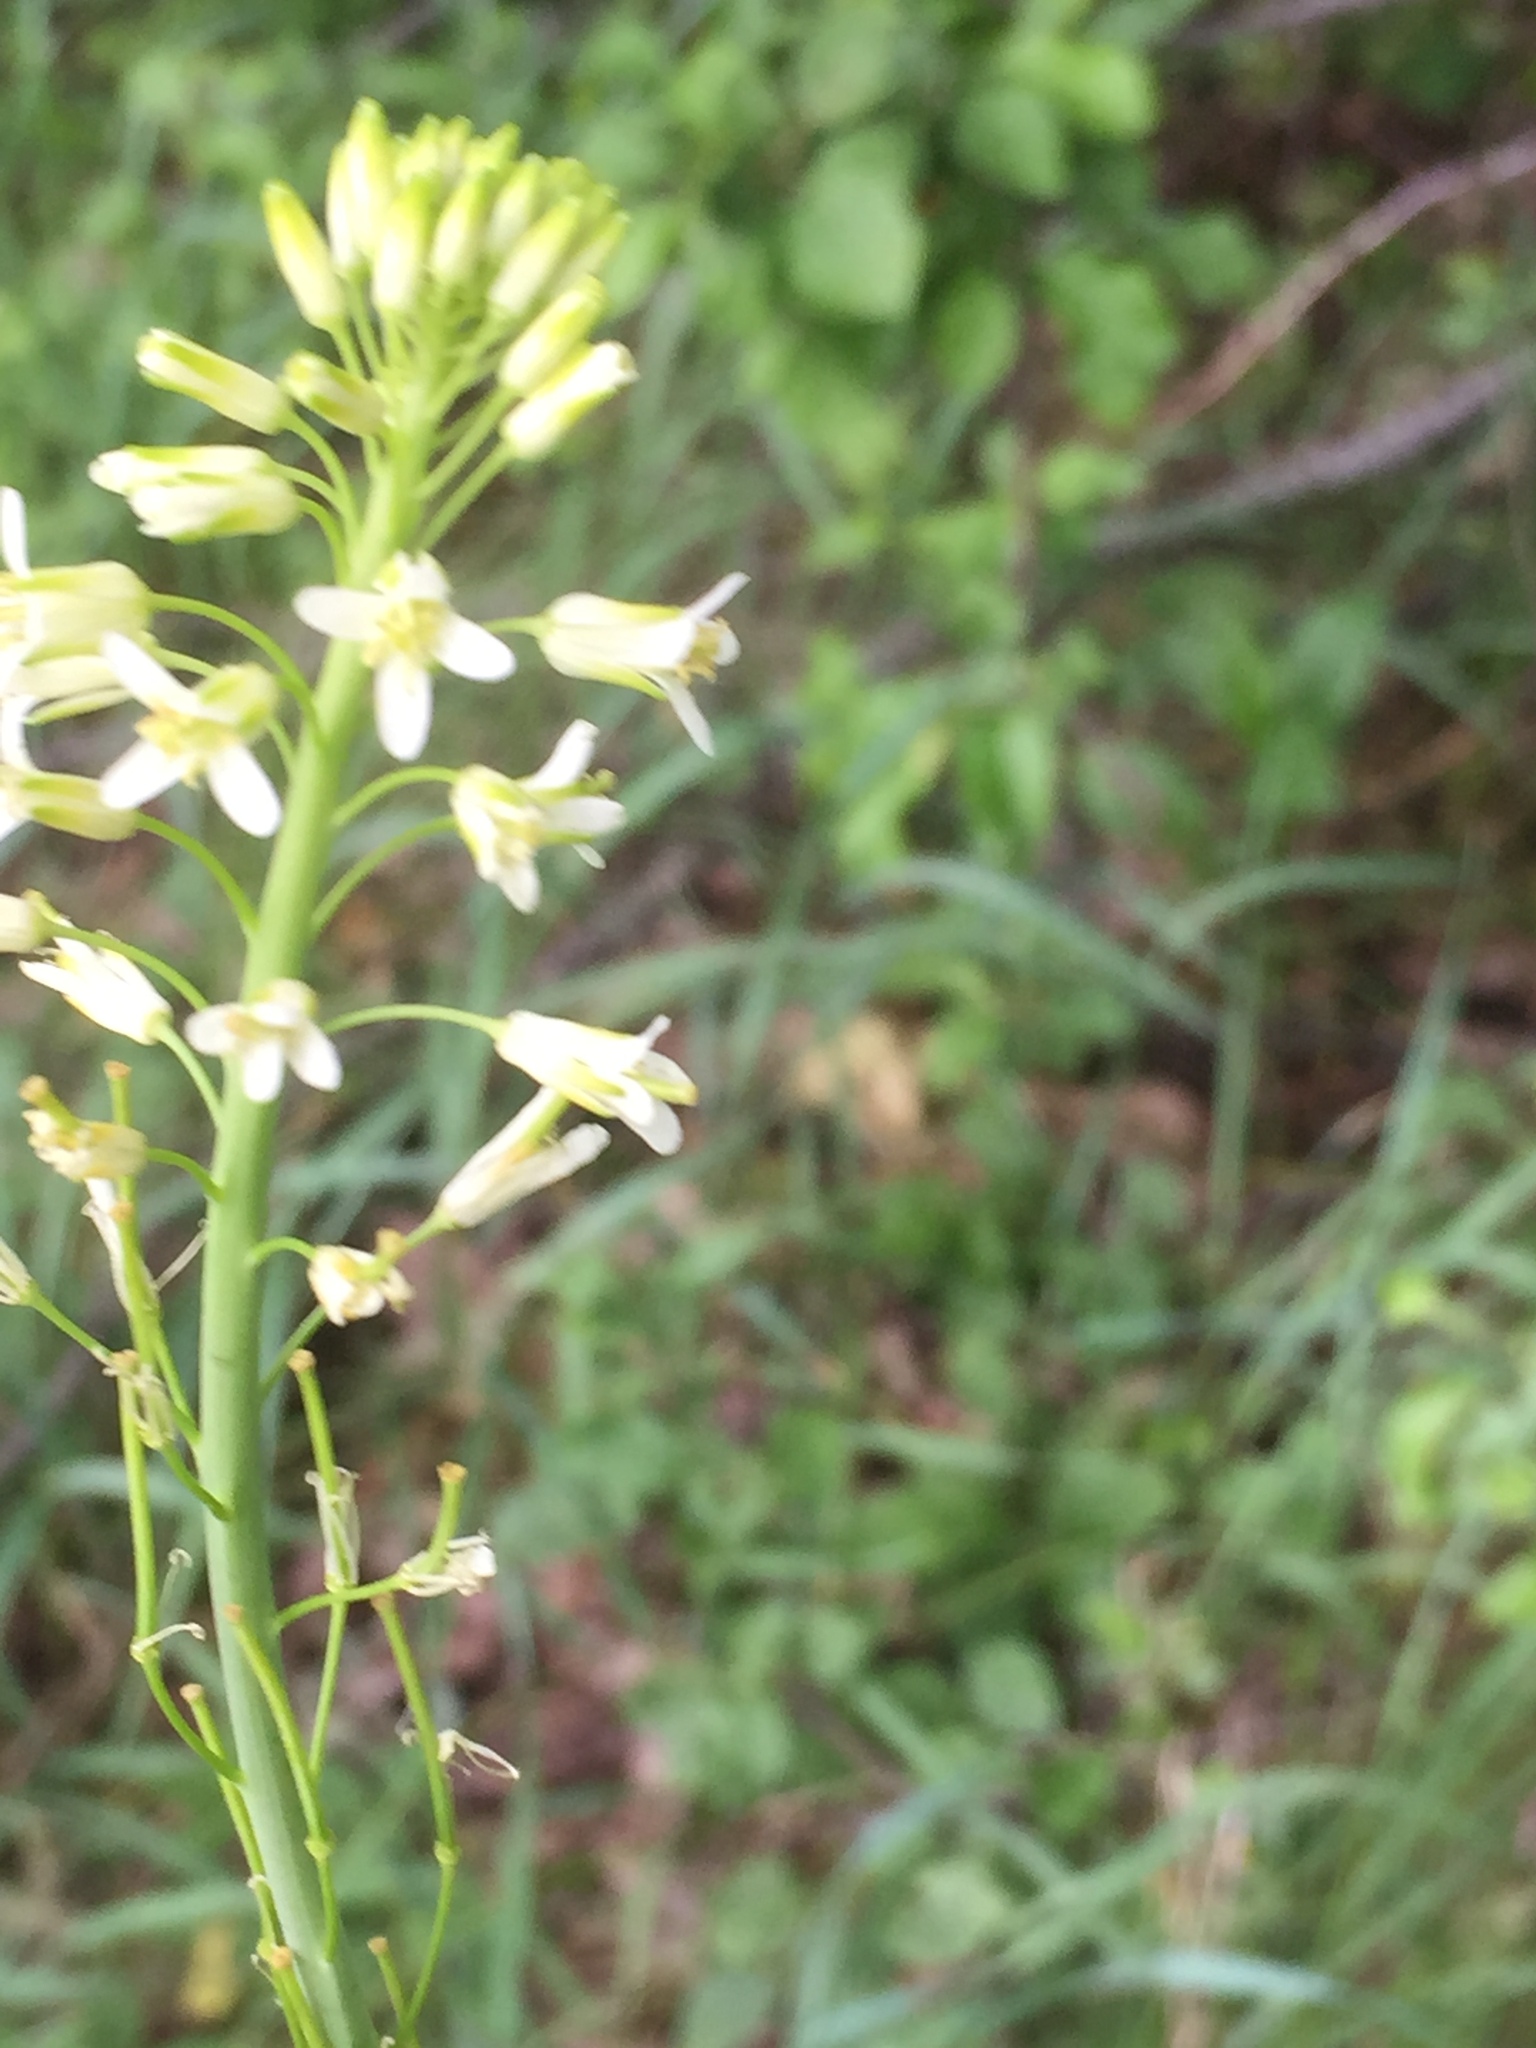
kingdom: Plantae
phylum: Tracheophyta
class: Magnoliopsida
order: Brassicales
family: Brassicaceae
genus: Turritis
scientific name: Turritis glabra
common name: Tower rockcress
